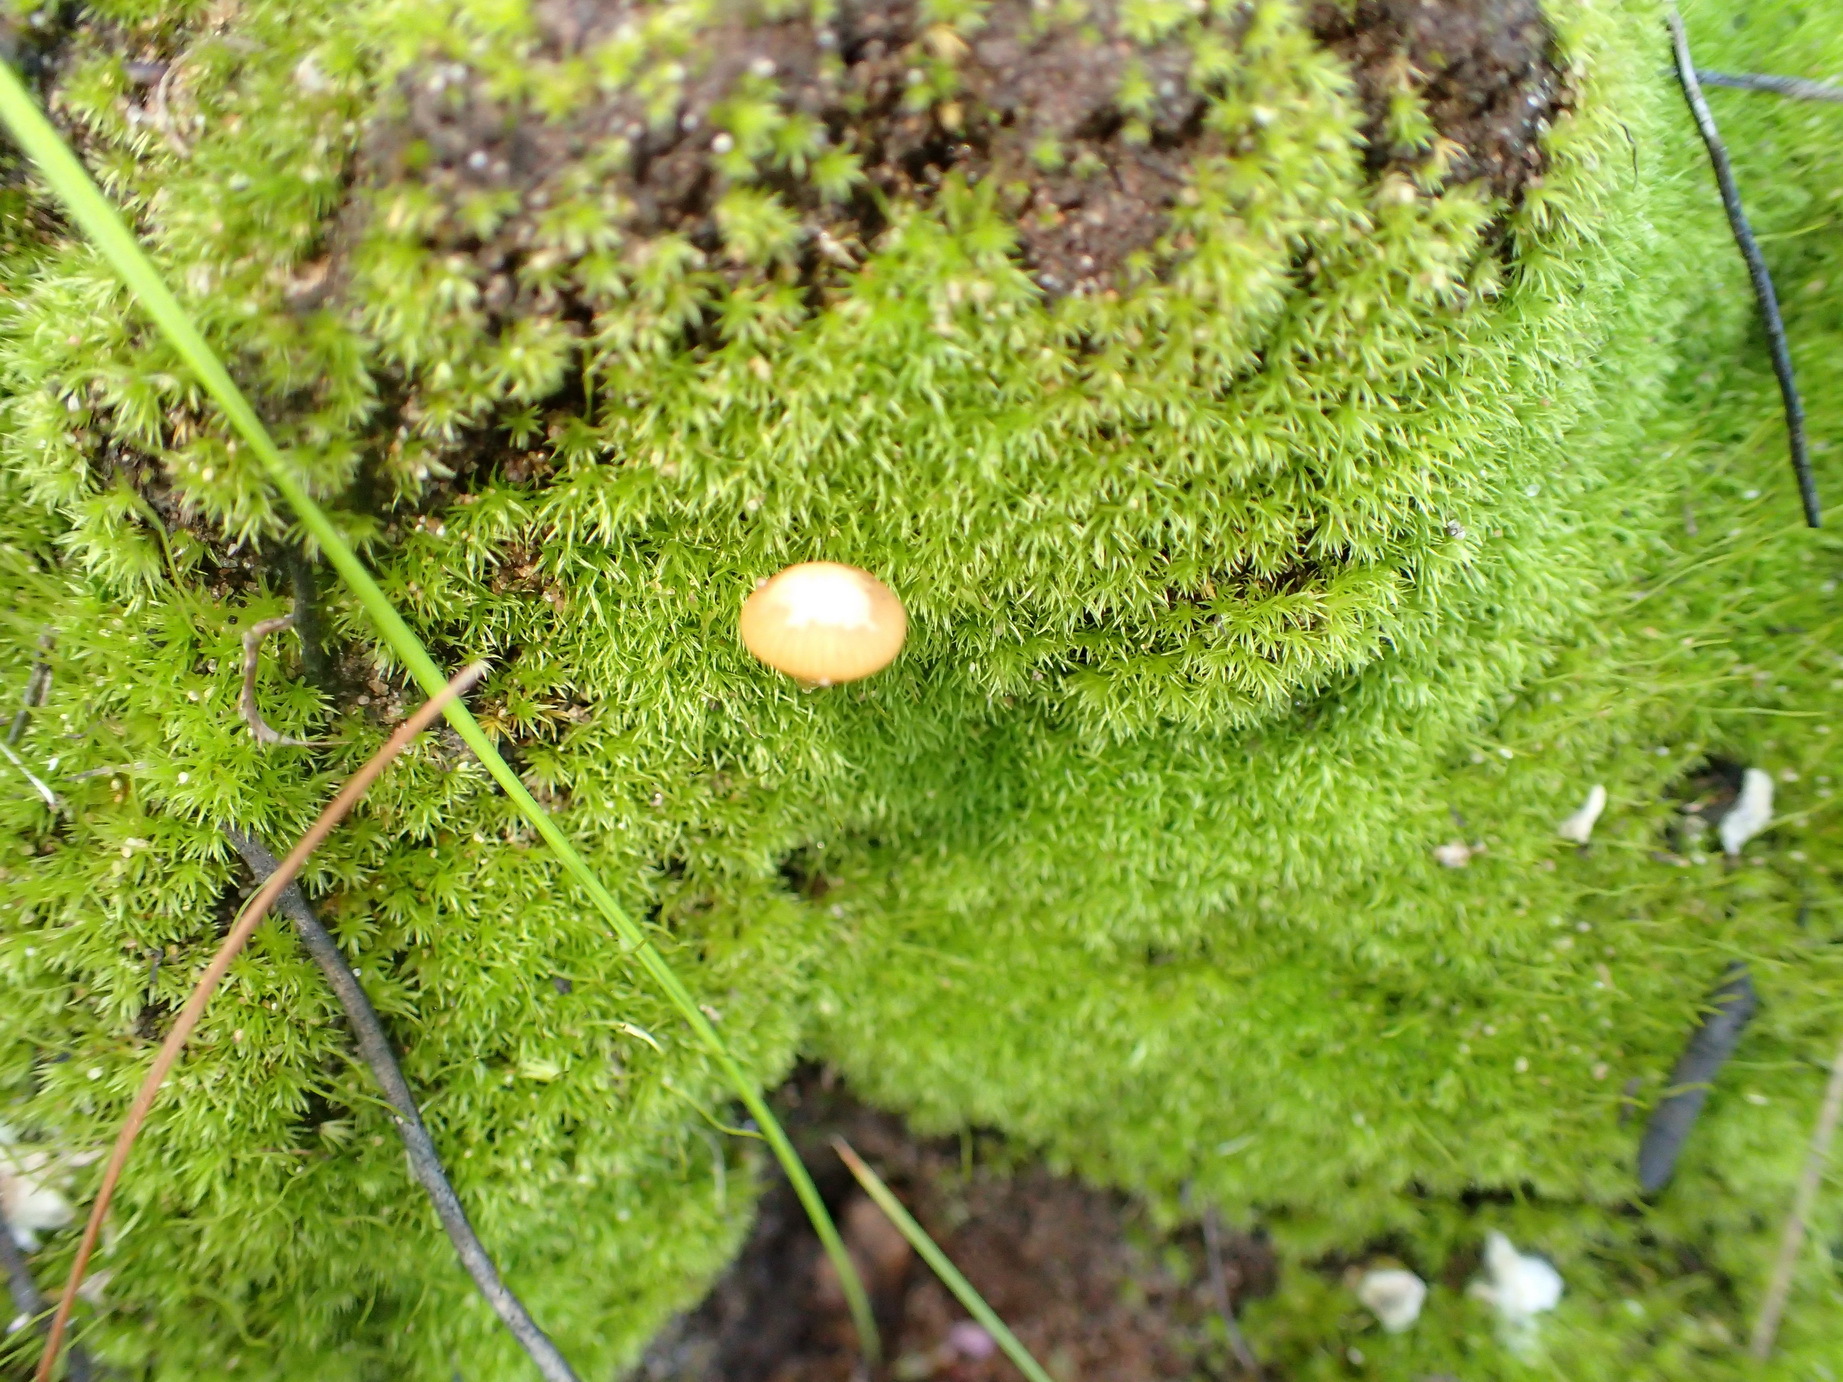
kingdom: Plantae
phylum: Bryophyta
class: Bryopsida
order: Dicranales
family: Ditrichaceae
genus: Ceratodon
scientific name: Ceratodon purpureus
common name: Redshank
